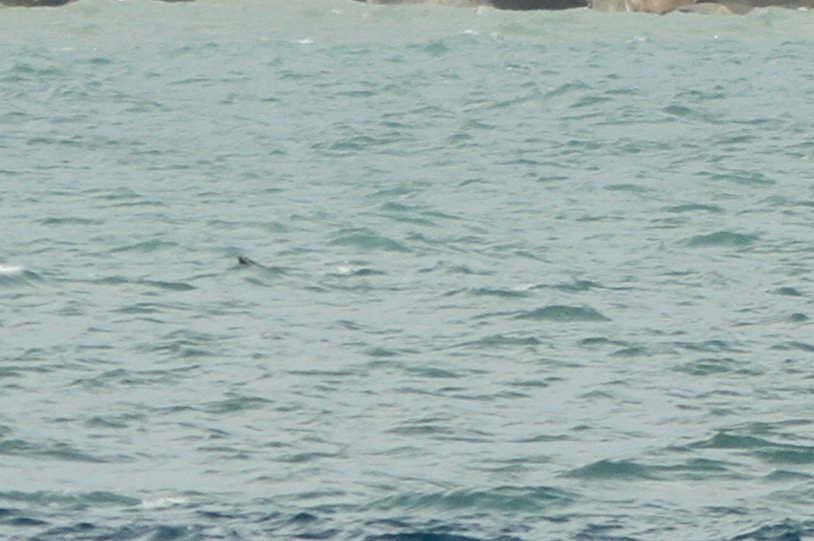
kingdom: Animalia
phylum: Chordata
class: Mammalia
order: Cetacea
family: Balaenopteridae
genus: Megaptera
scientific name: Megaptera novaeangliae
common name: Humpback whale
